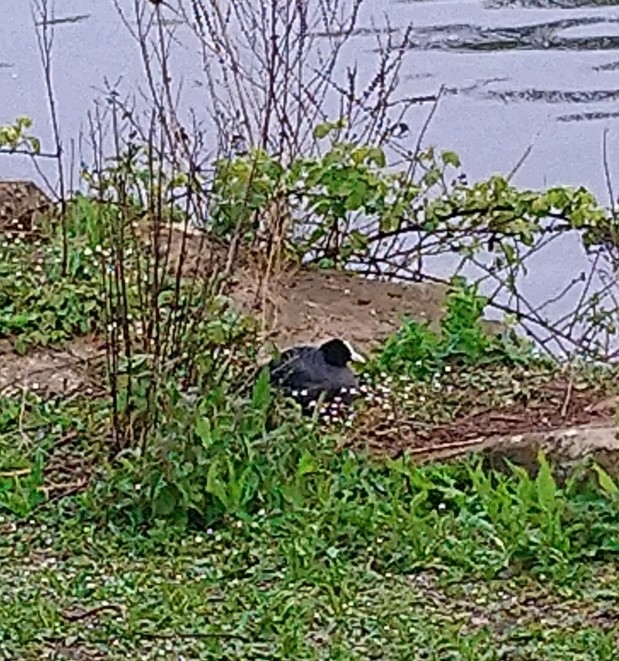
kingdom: Animalia
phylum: Chordata
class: Aves
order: Gruiformes
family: Rallidae
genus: Fulica
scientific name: Fulica atra
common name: Eurasian coot
